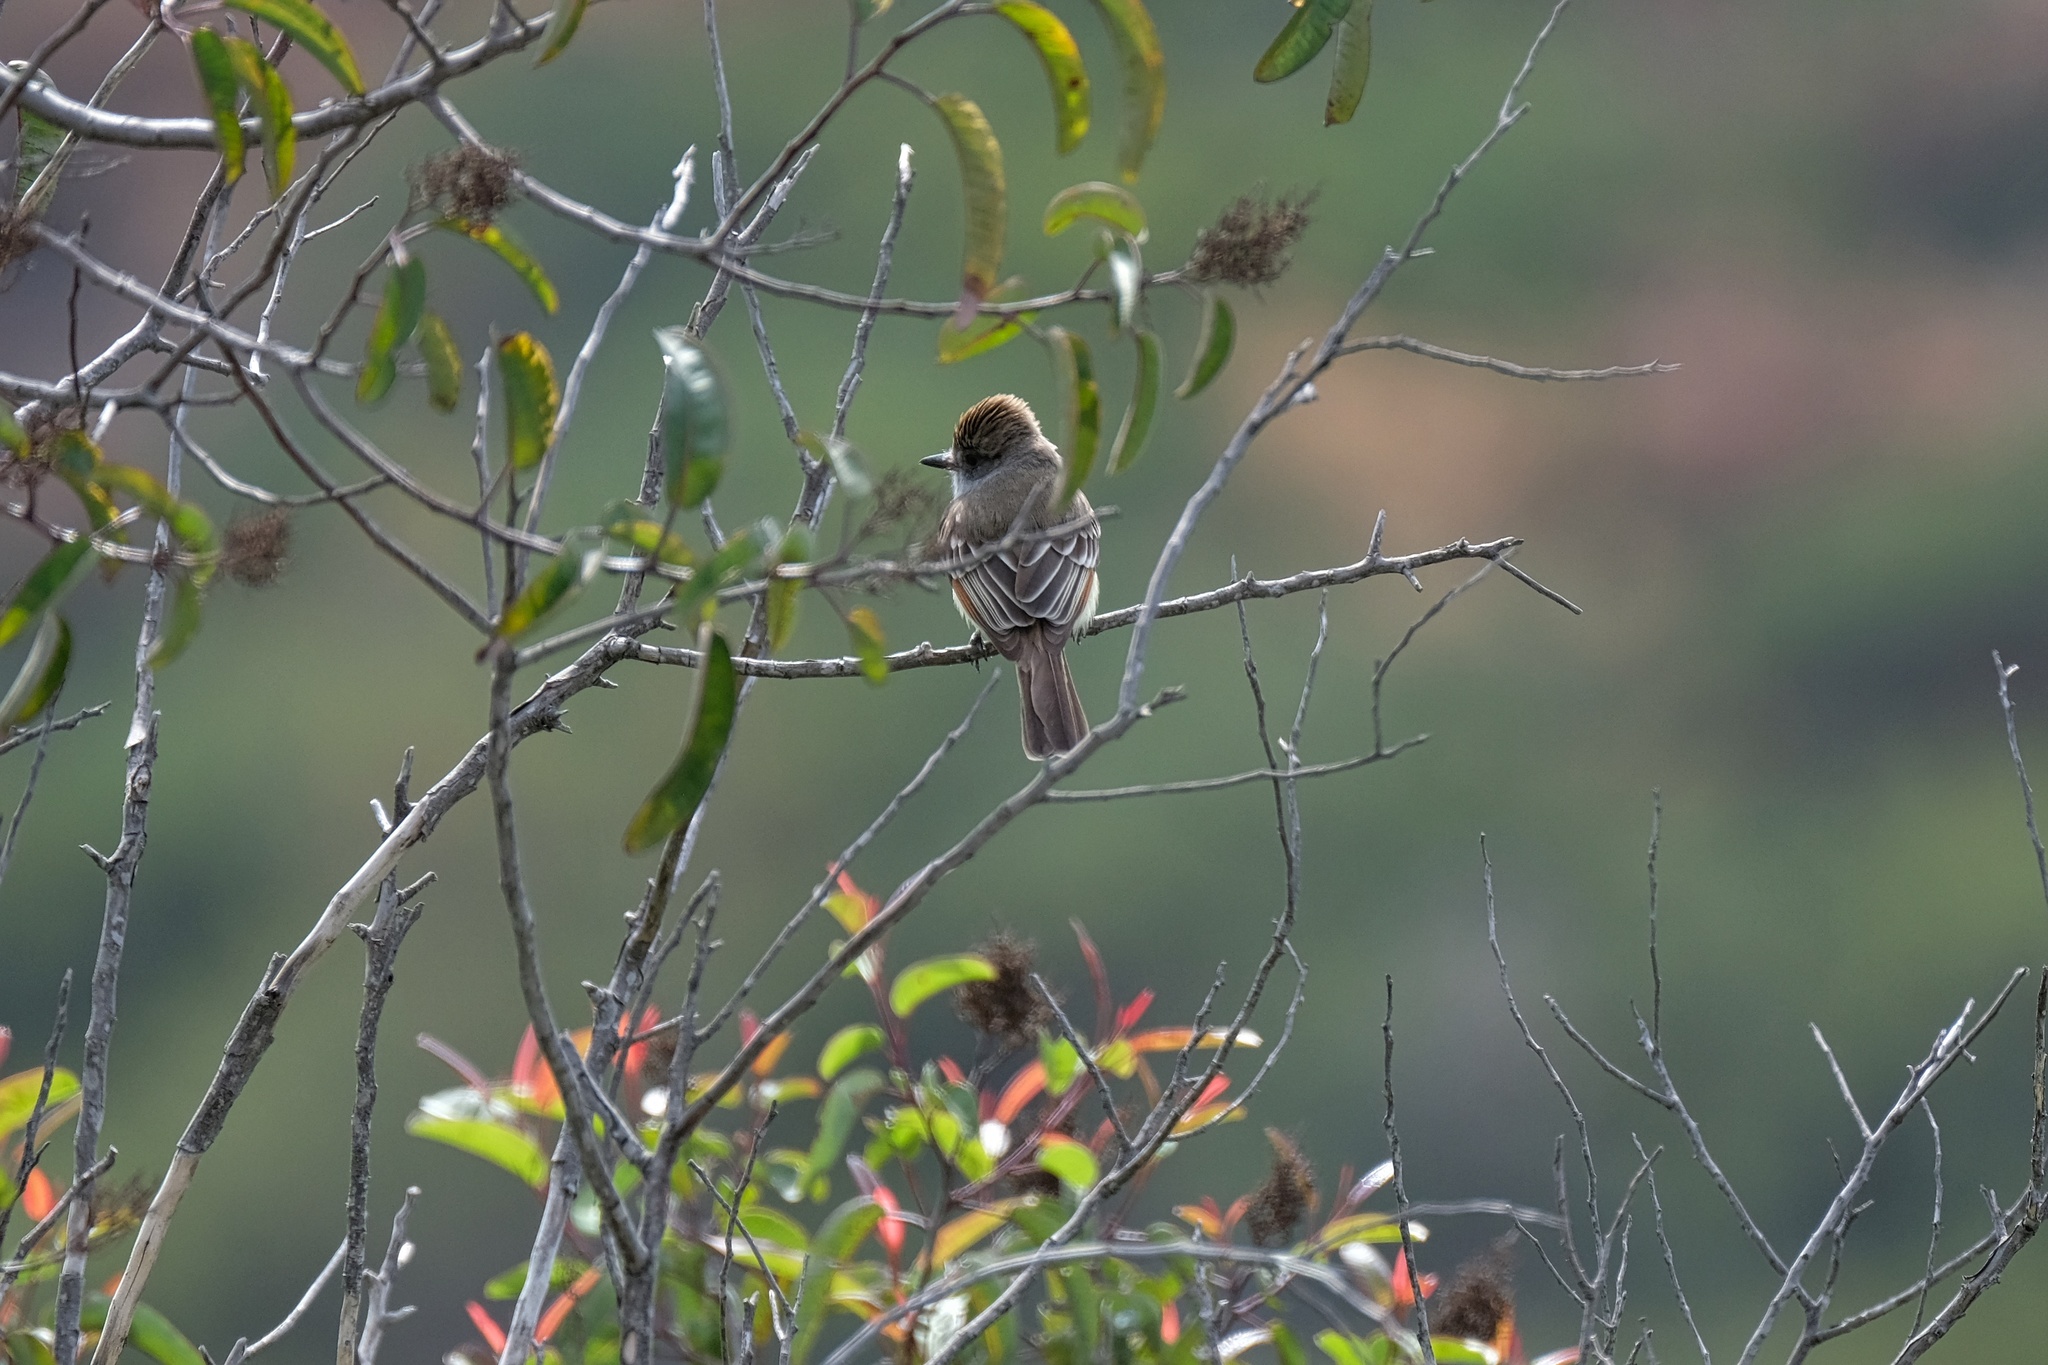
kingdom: Animalia
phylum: Chordata
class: Aves
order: Passeriformes
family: Tyrannidae
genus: Myiarchus
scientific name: Myiarchus cinerascens
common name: Ash-throated flycatcher
